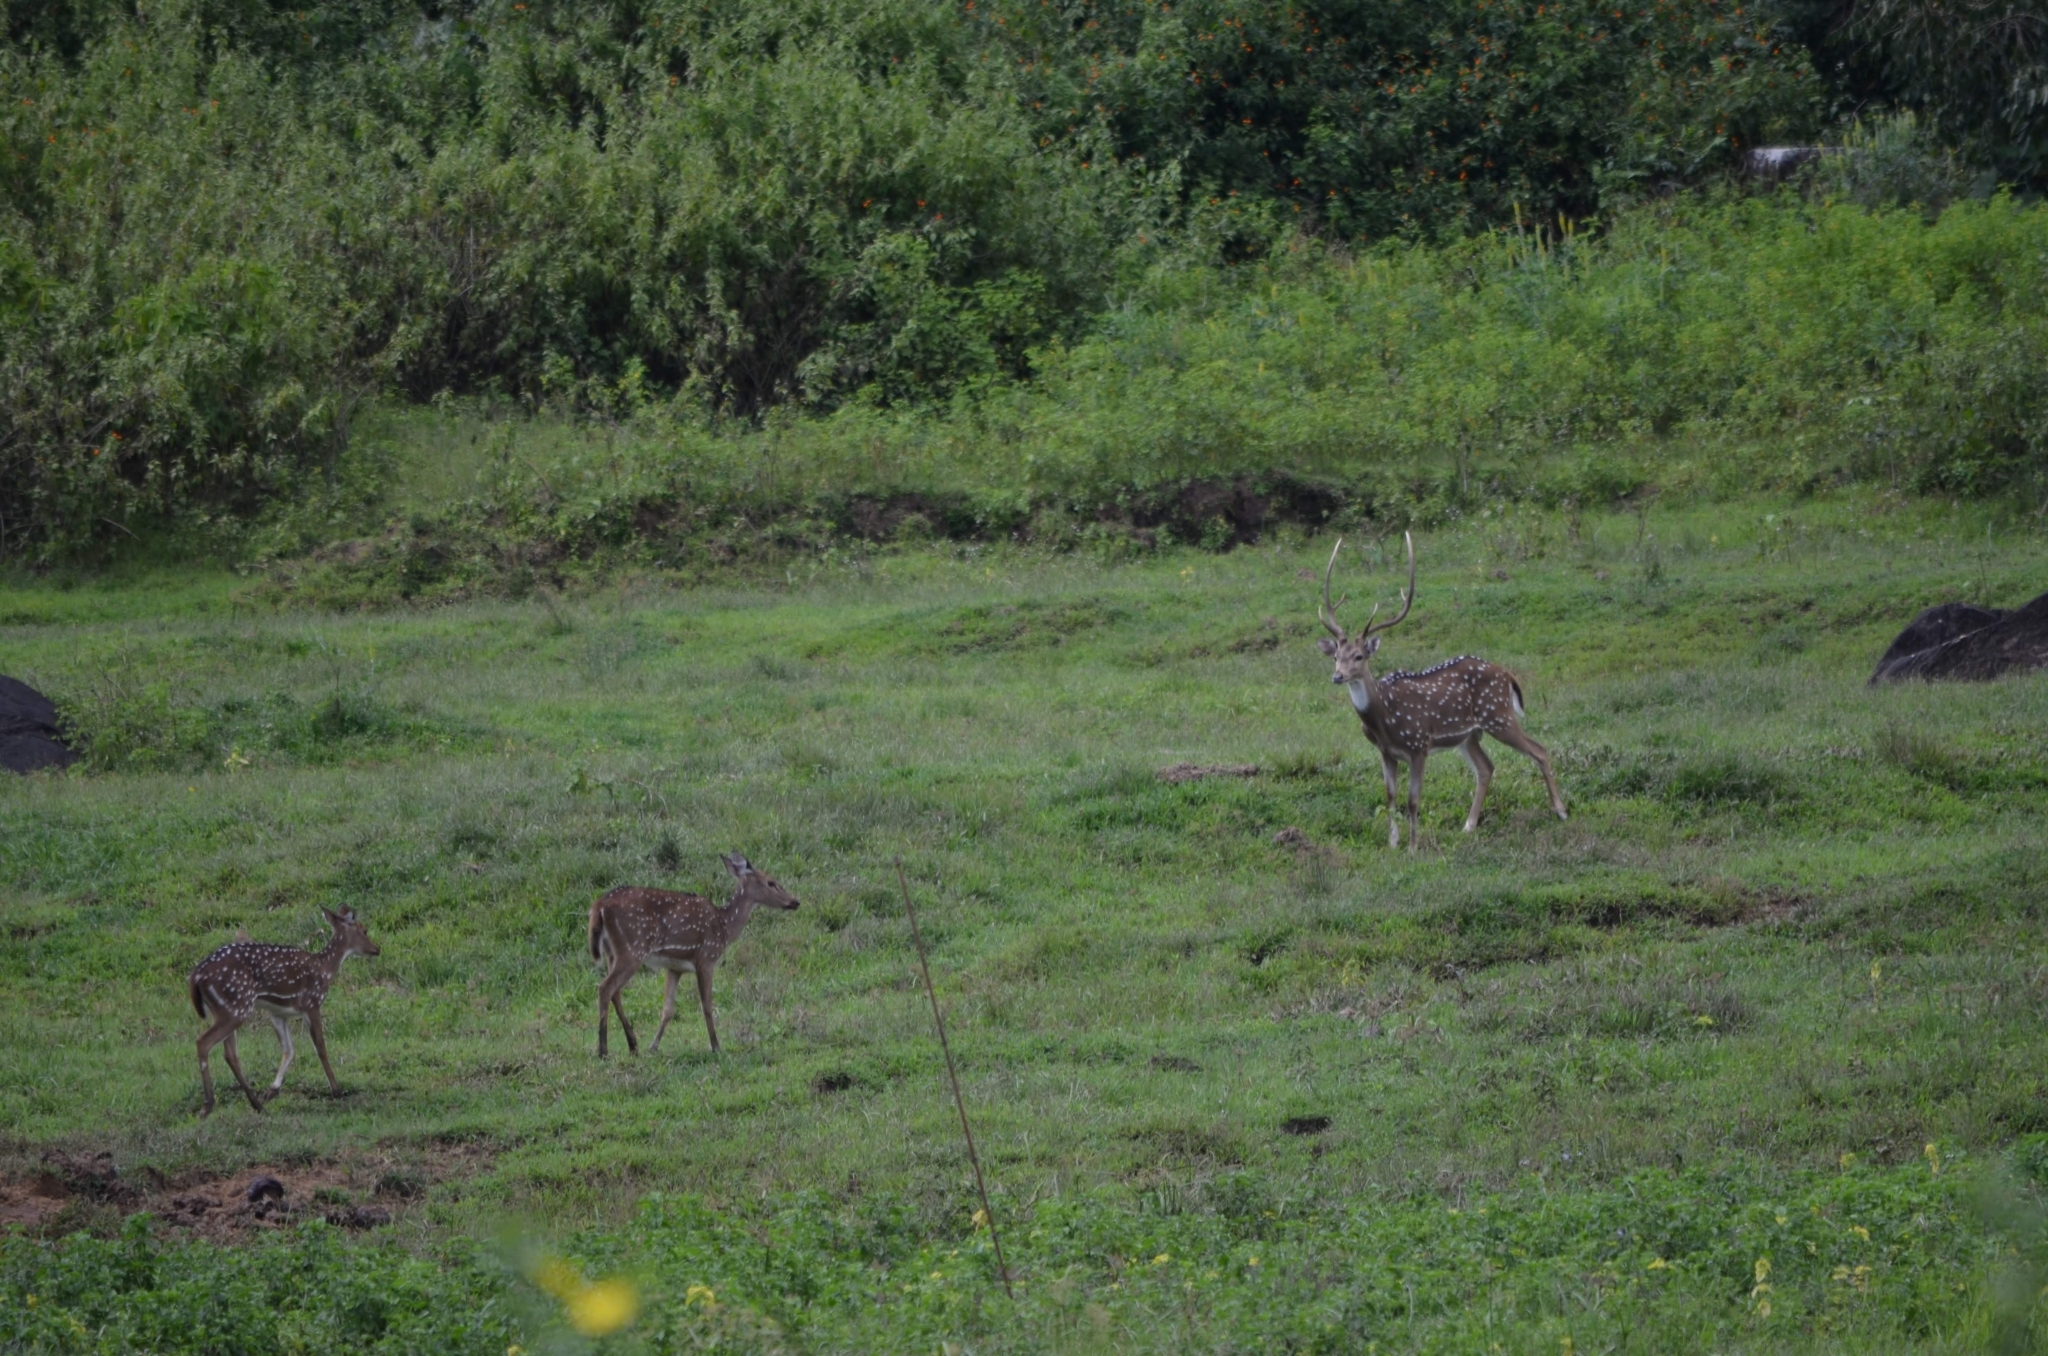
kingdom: Animalia
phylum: Chordata
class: Mammalia
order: Artiodactyla
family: Cervidae
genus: Axis
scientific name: Axis axis
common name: Chital
